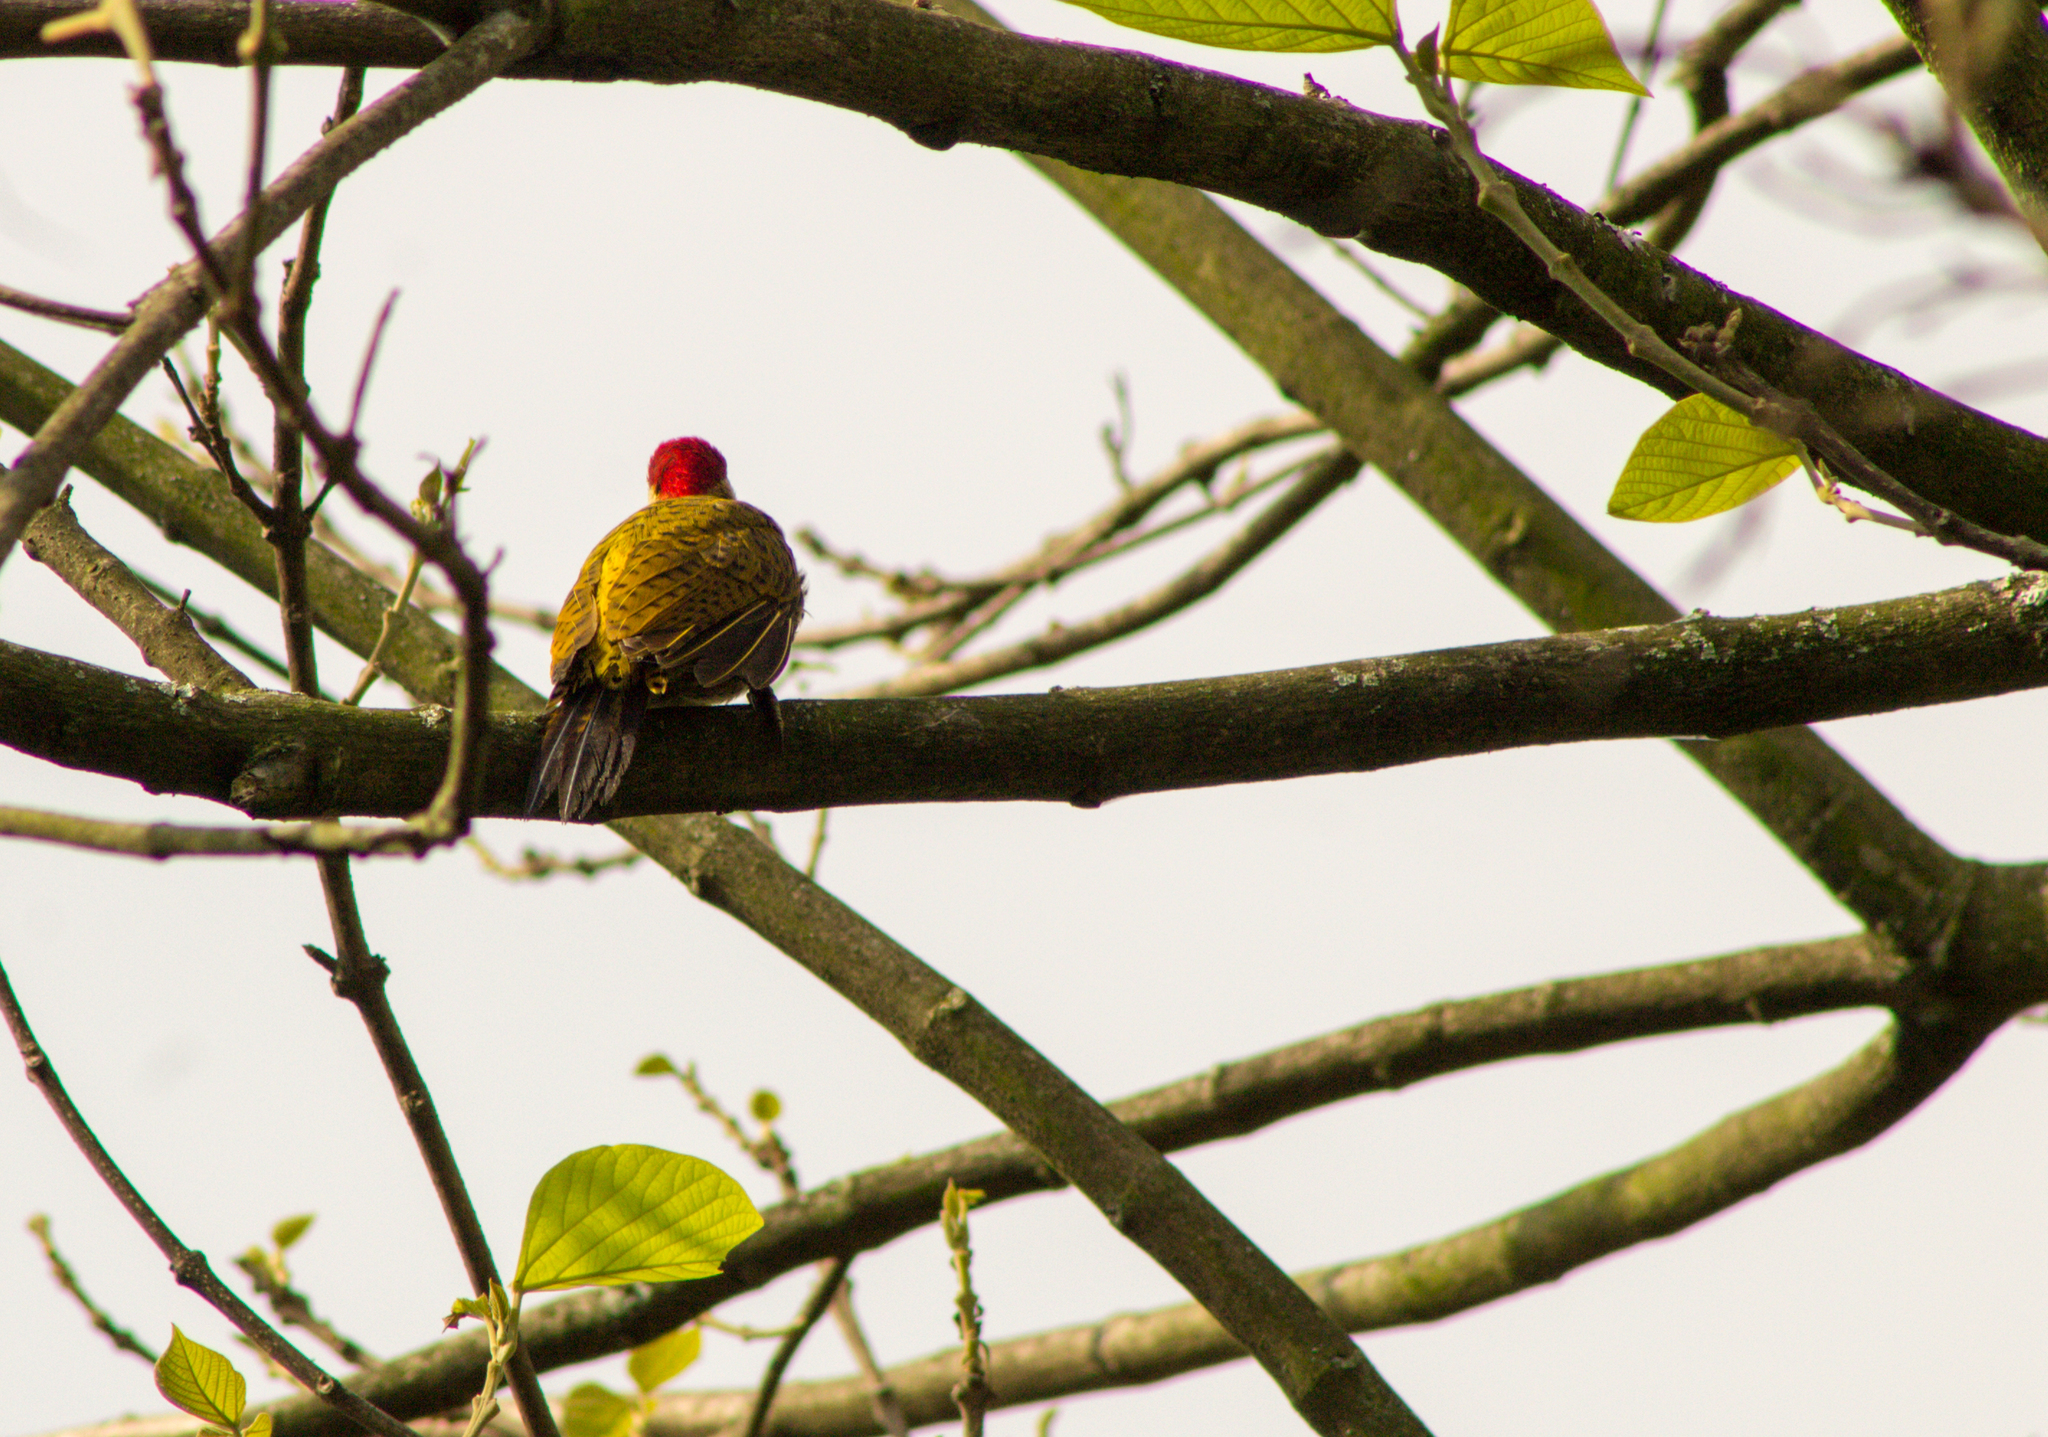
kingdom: Animalia
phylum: Chordata
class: Aves
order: Piciformes
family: Picidae
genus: Colaptes
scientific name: Colaptes punctigula
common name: Spot-breasted woodpecker
